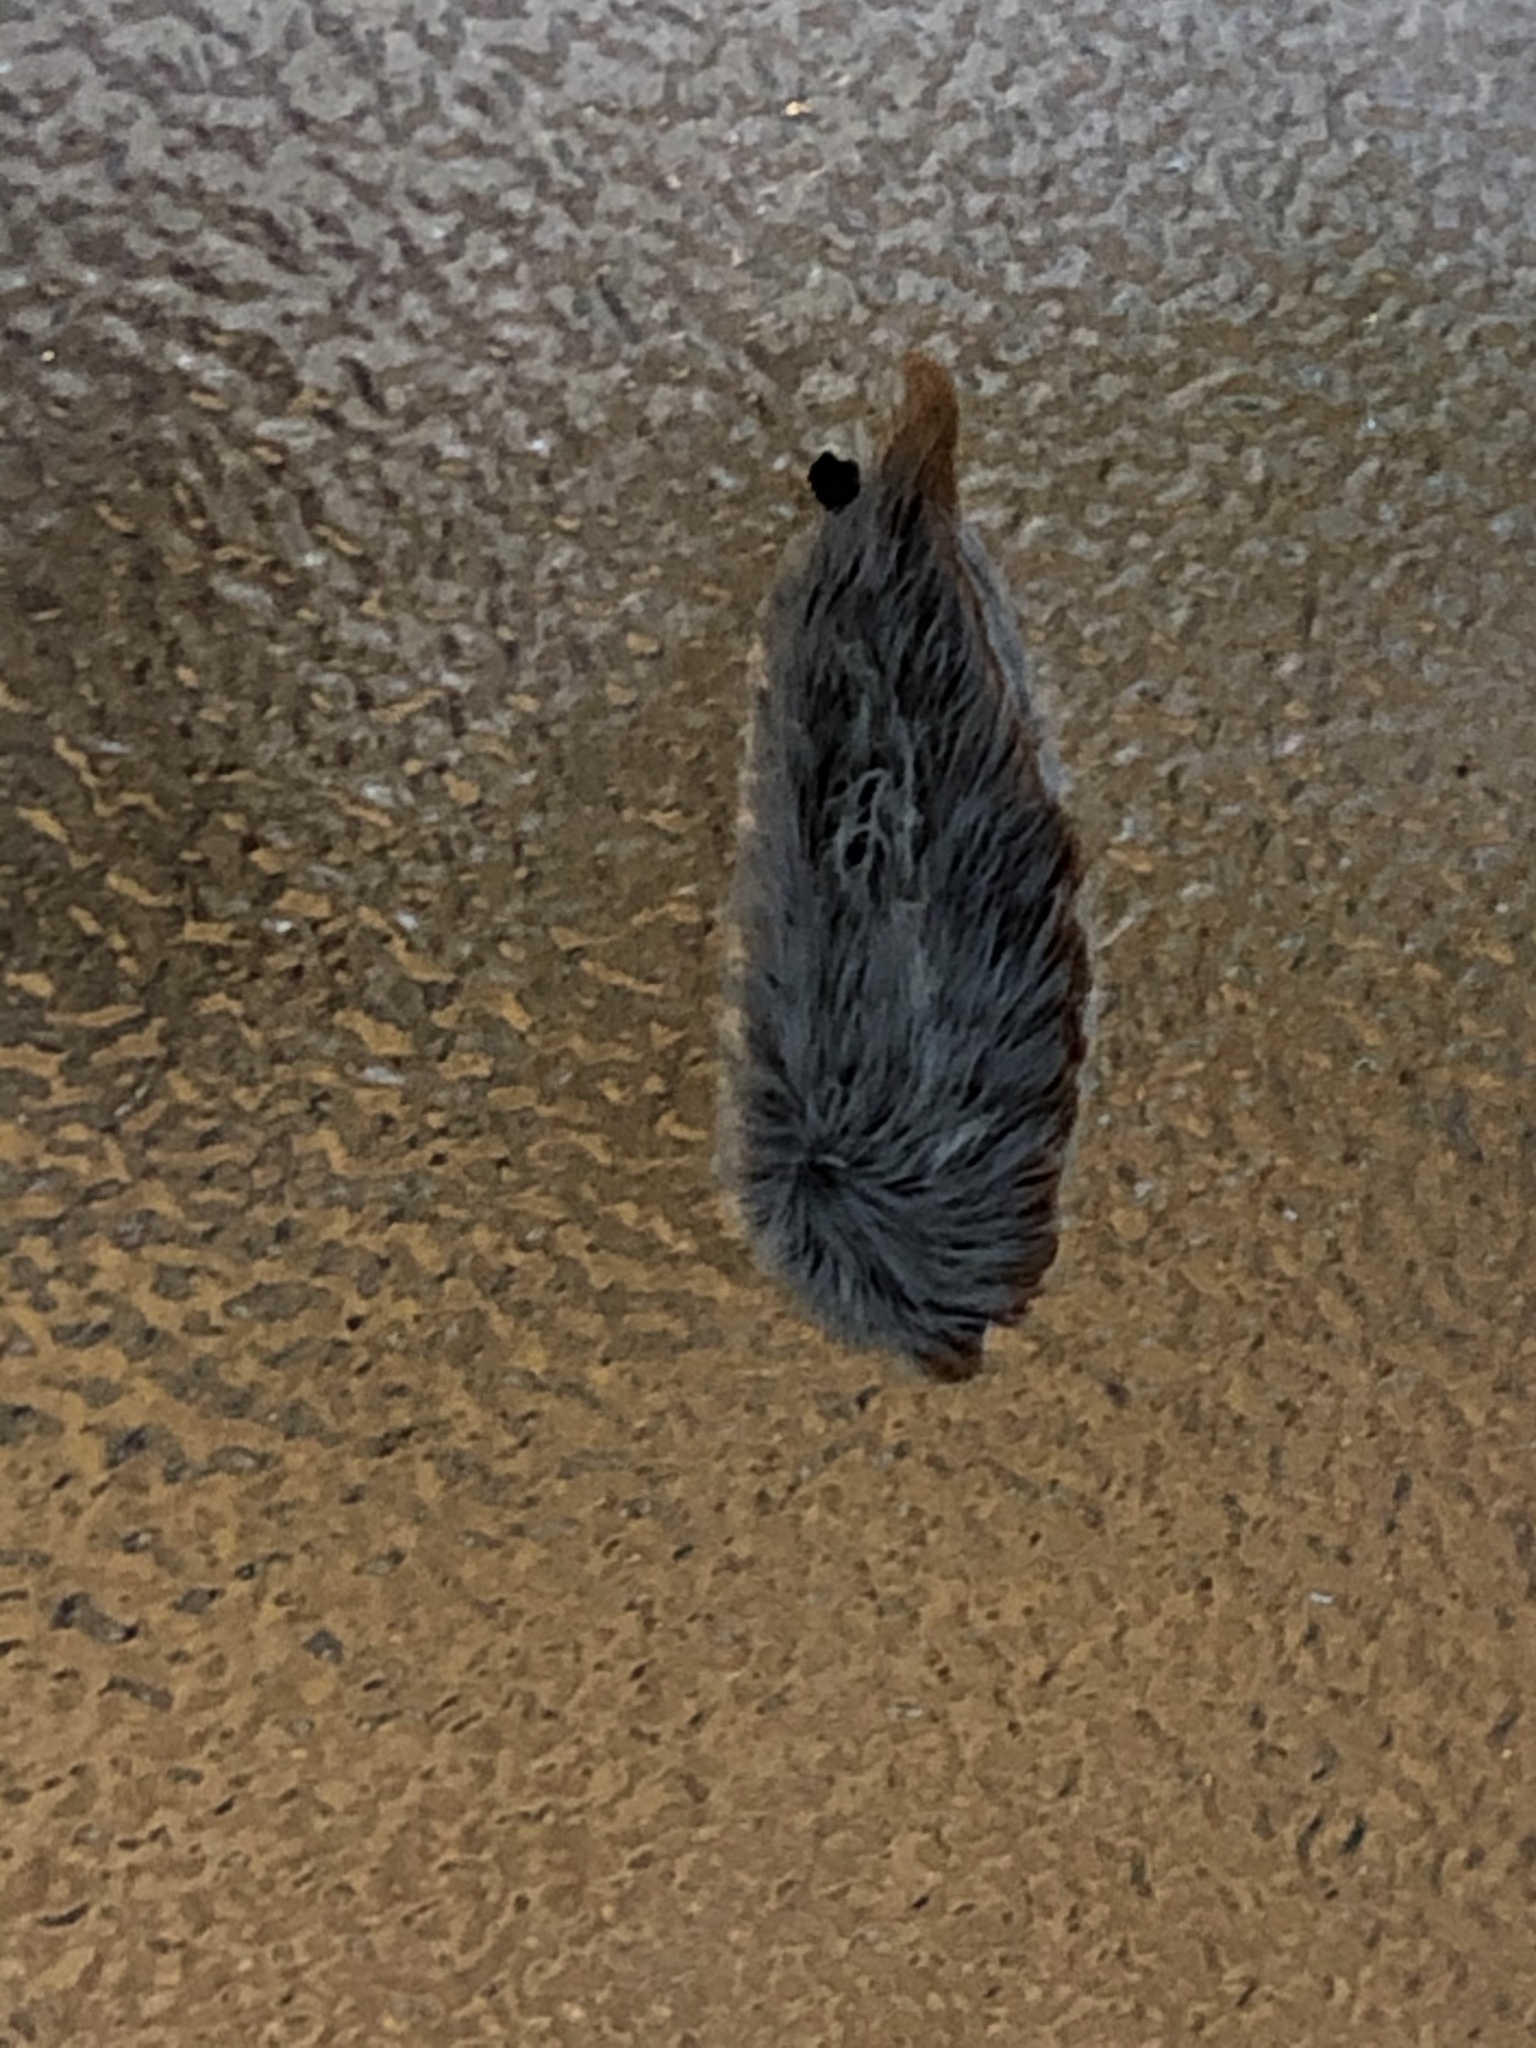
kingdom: Animalia
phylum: Arthropoda
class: Insecta
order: Lepidoptera
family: Megalopygidae
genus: Megalopyge
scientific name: Megalopyge opercularis
